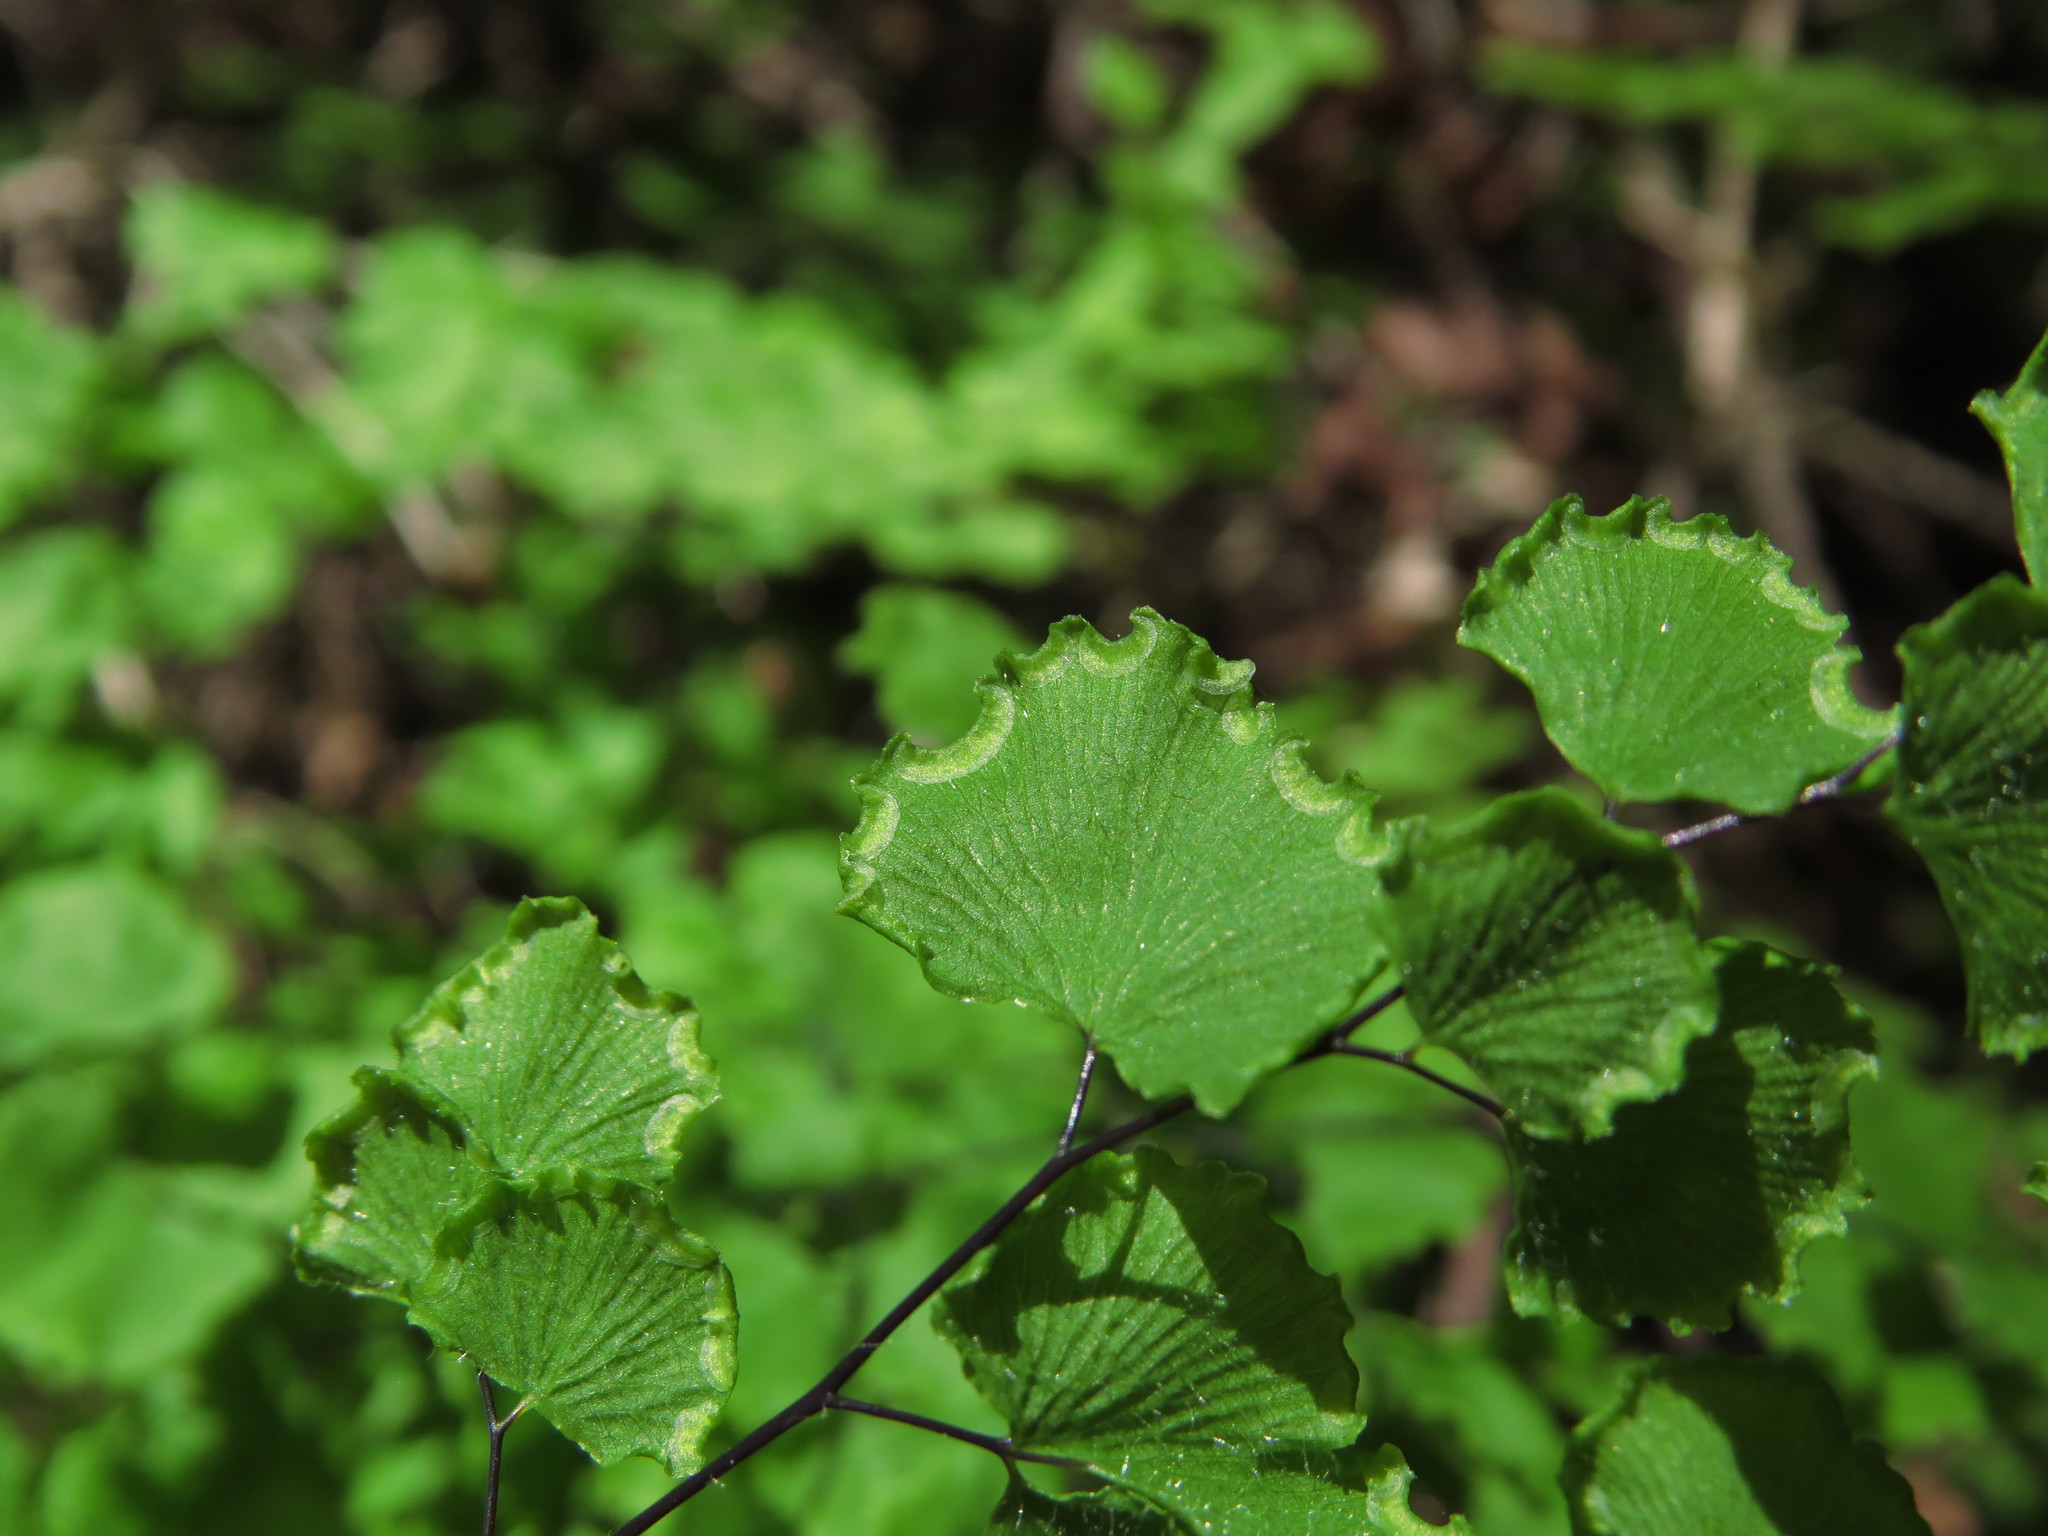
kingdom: Plantae
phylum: Tracheophyta
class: Polypodiopsida
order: Polypodiales
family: Pteridaceae
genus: Adiantum
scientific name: Adiantum chilense
